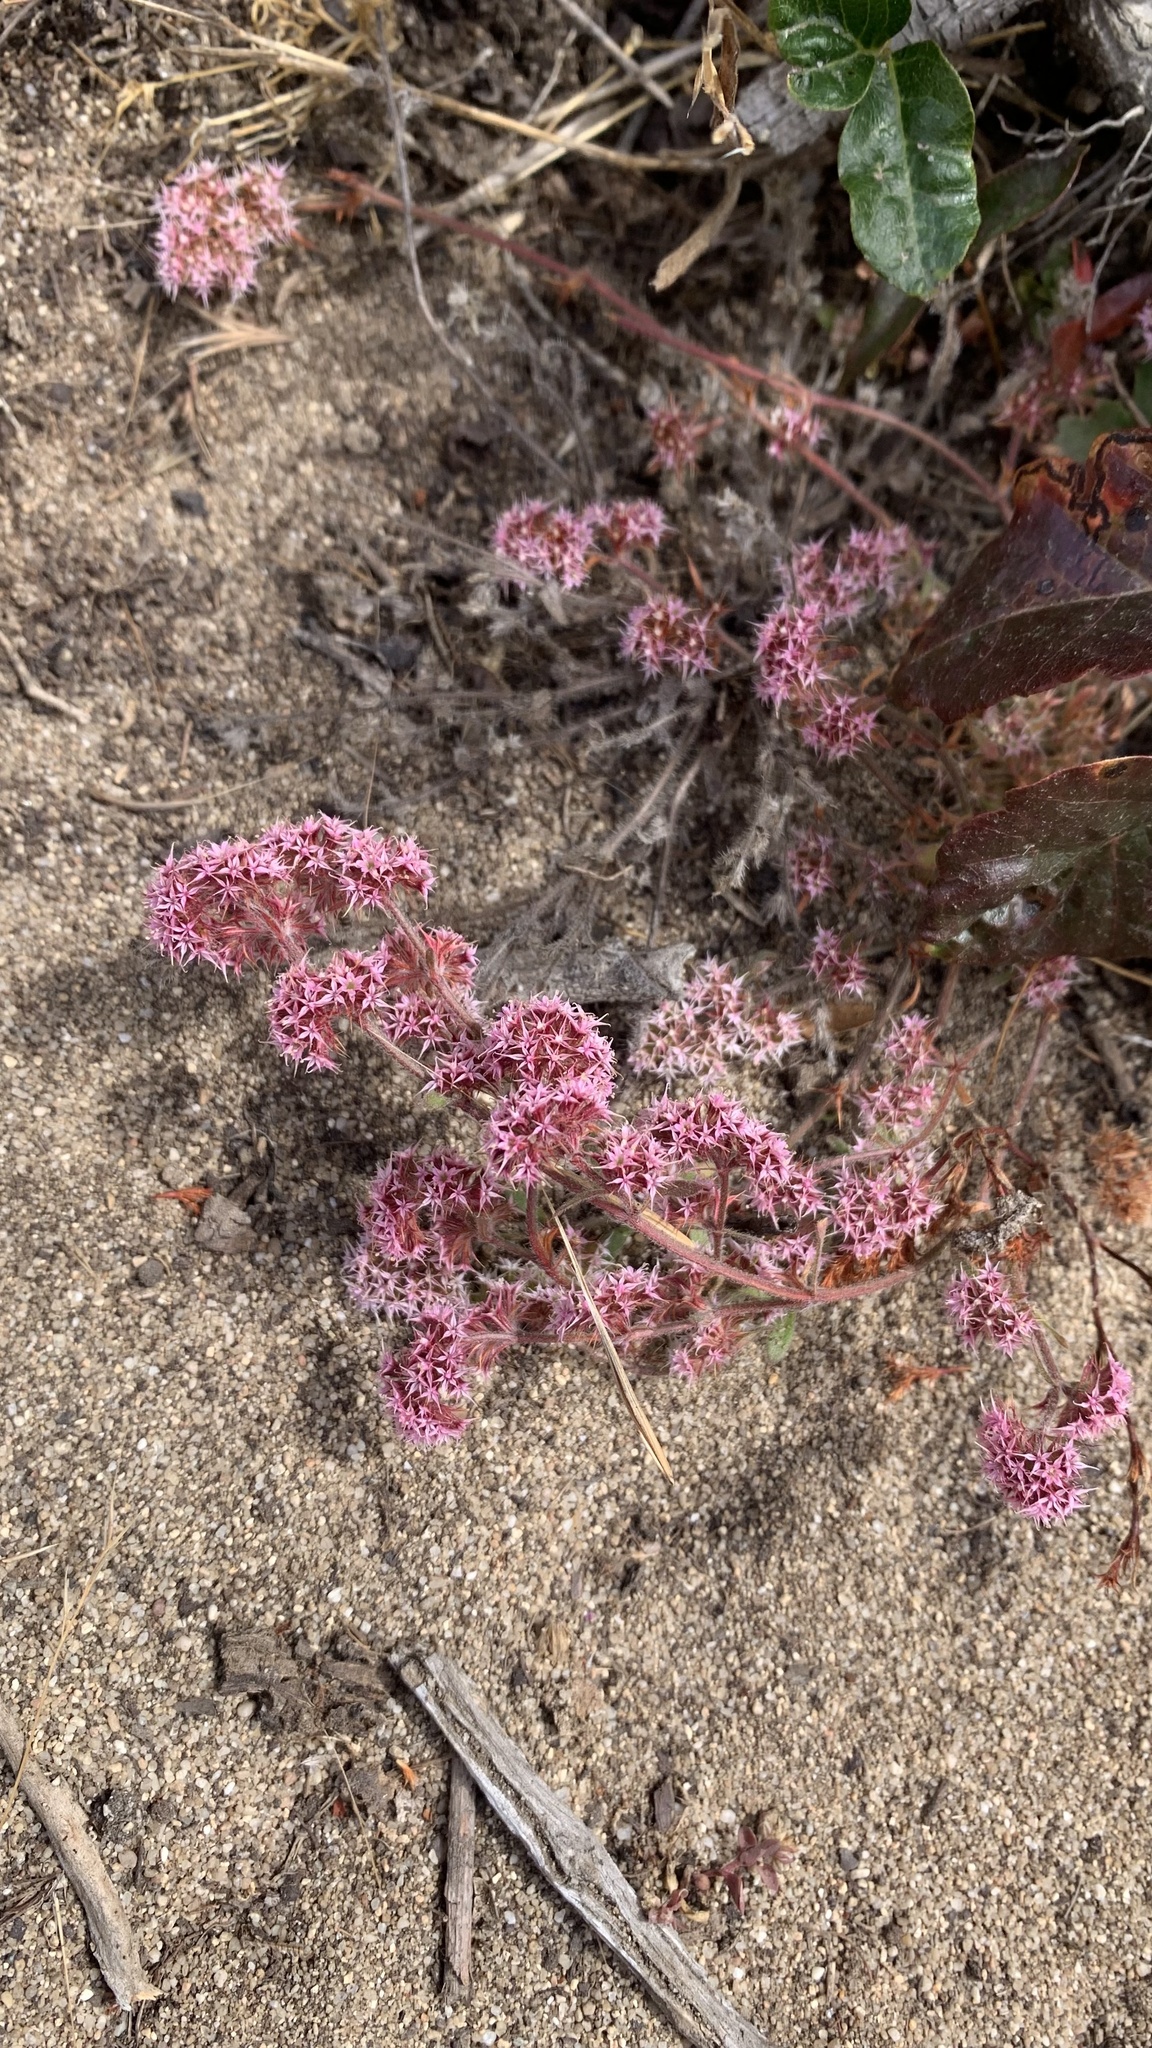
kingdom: Plantae
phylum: Tracheophyta
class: Magnoliopsida
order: Caryophyllales
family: Polygonaceae
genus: Chorizanthe
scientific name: Chorizanthe pungens
